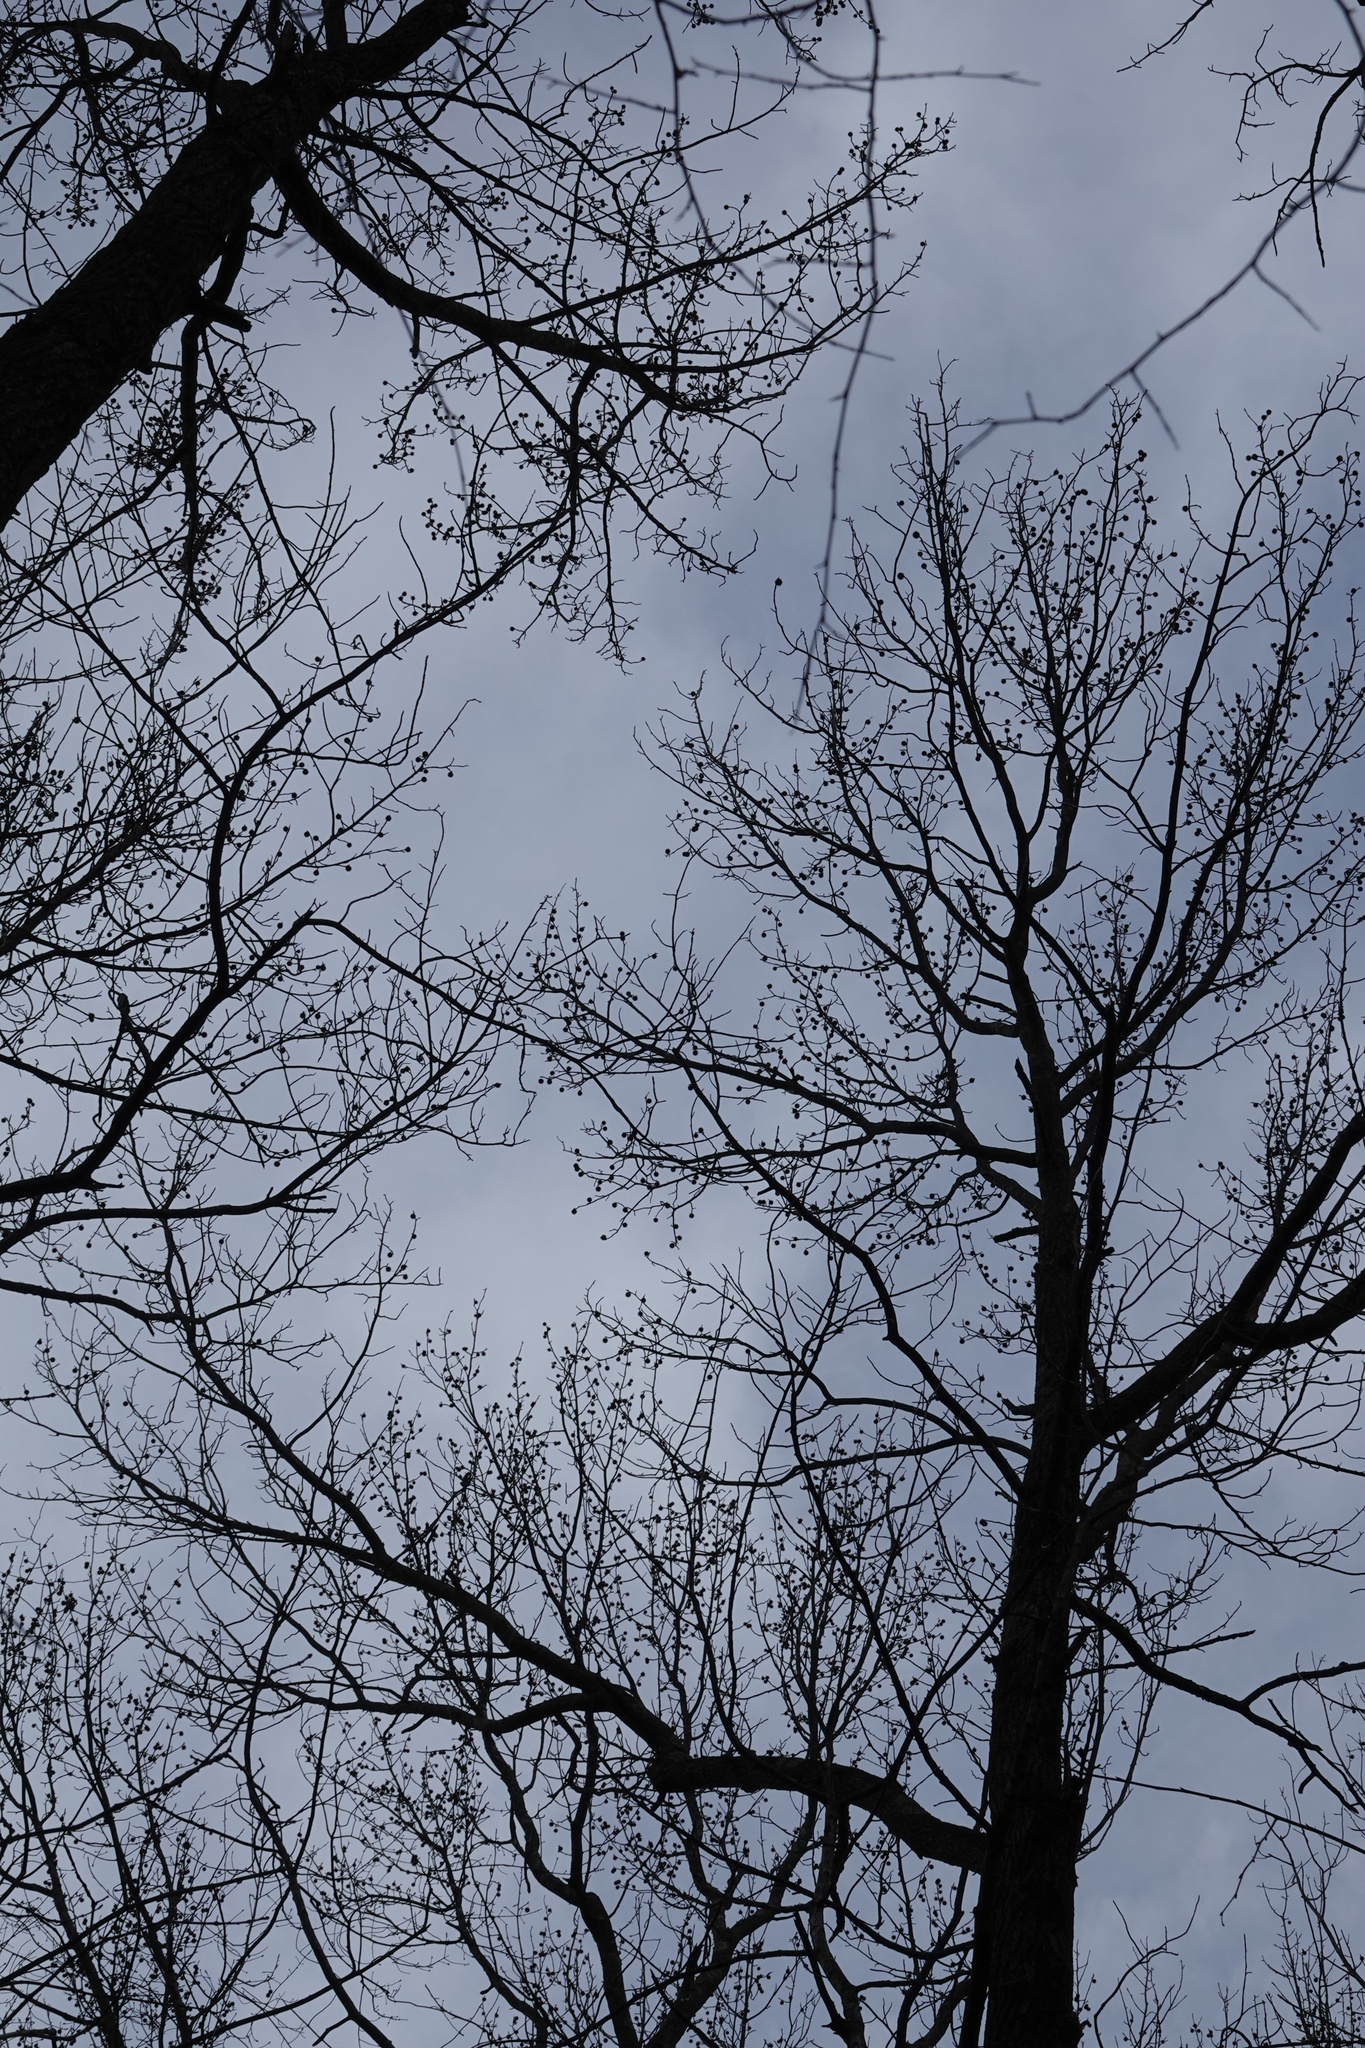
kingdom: Plantae
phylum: Tracheophyta
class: Magnoliopsida
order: Saxifragales
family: Altingiaceae
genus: Liquidambar
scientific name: Liquidambar styraciflua
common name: Sweet gum
